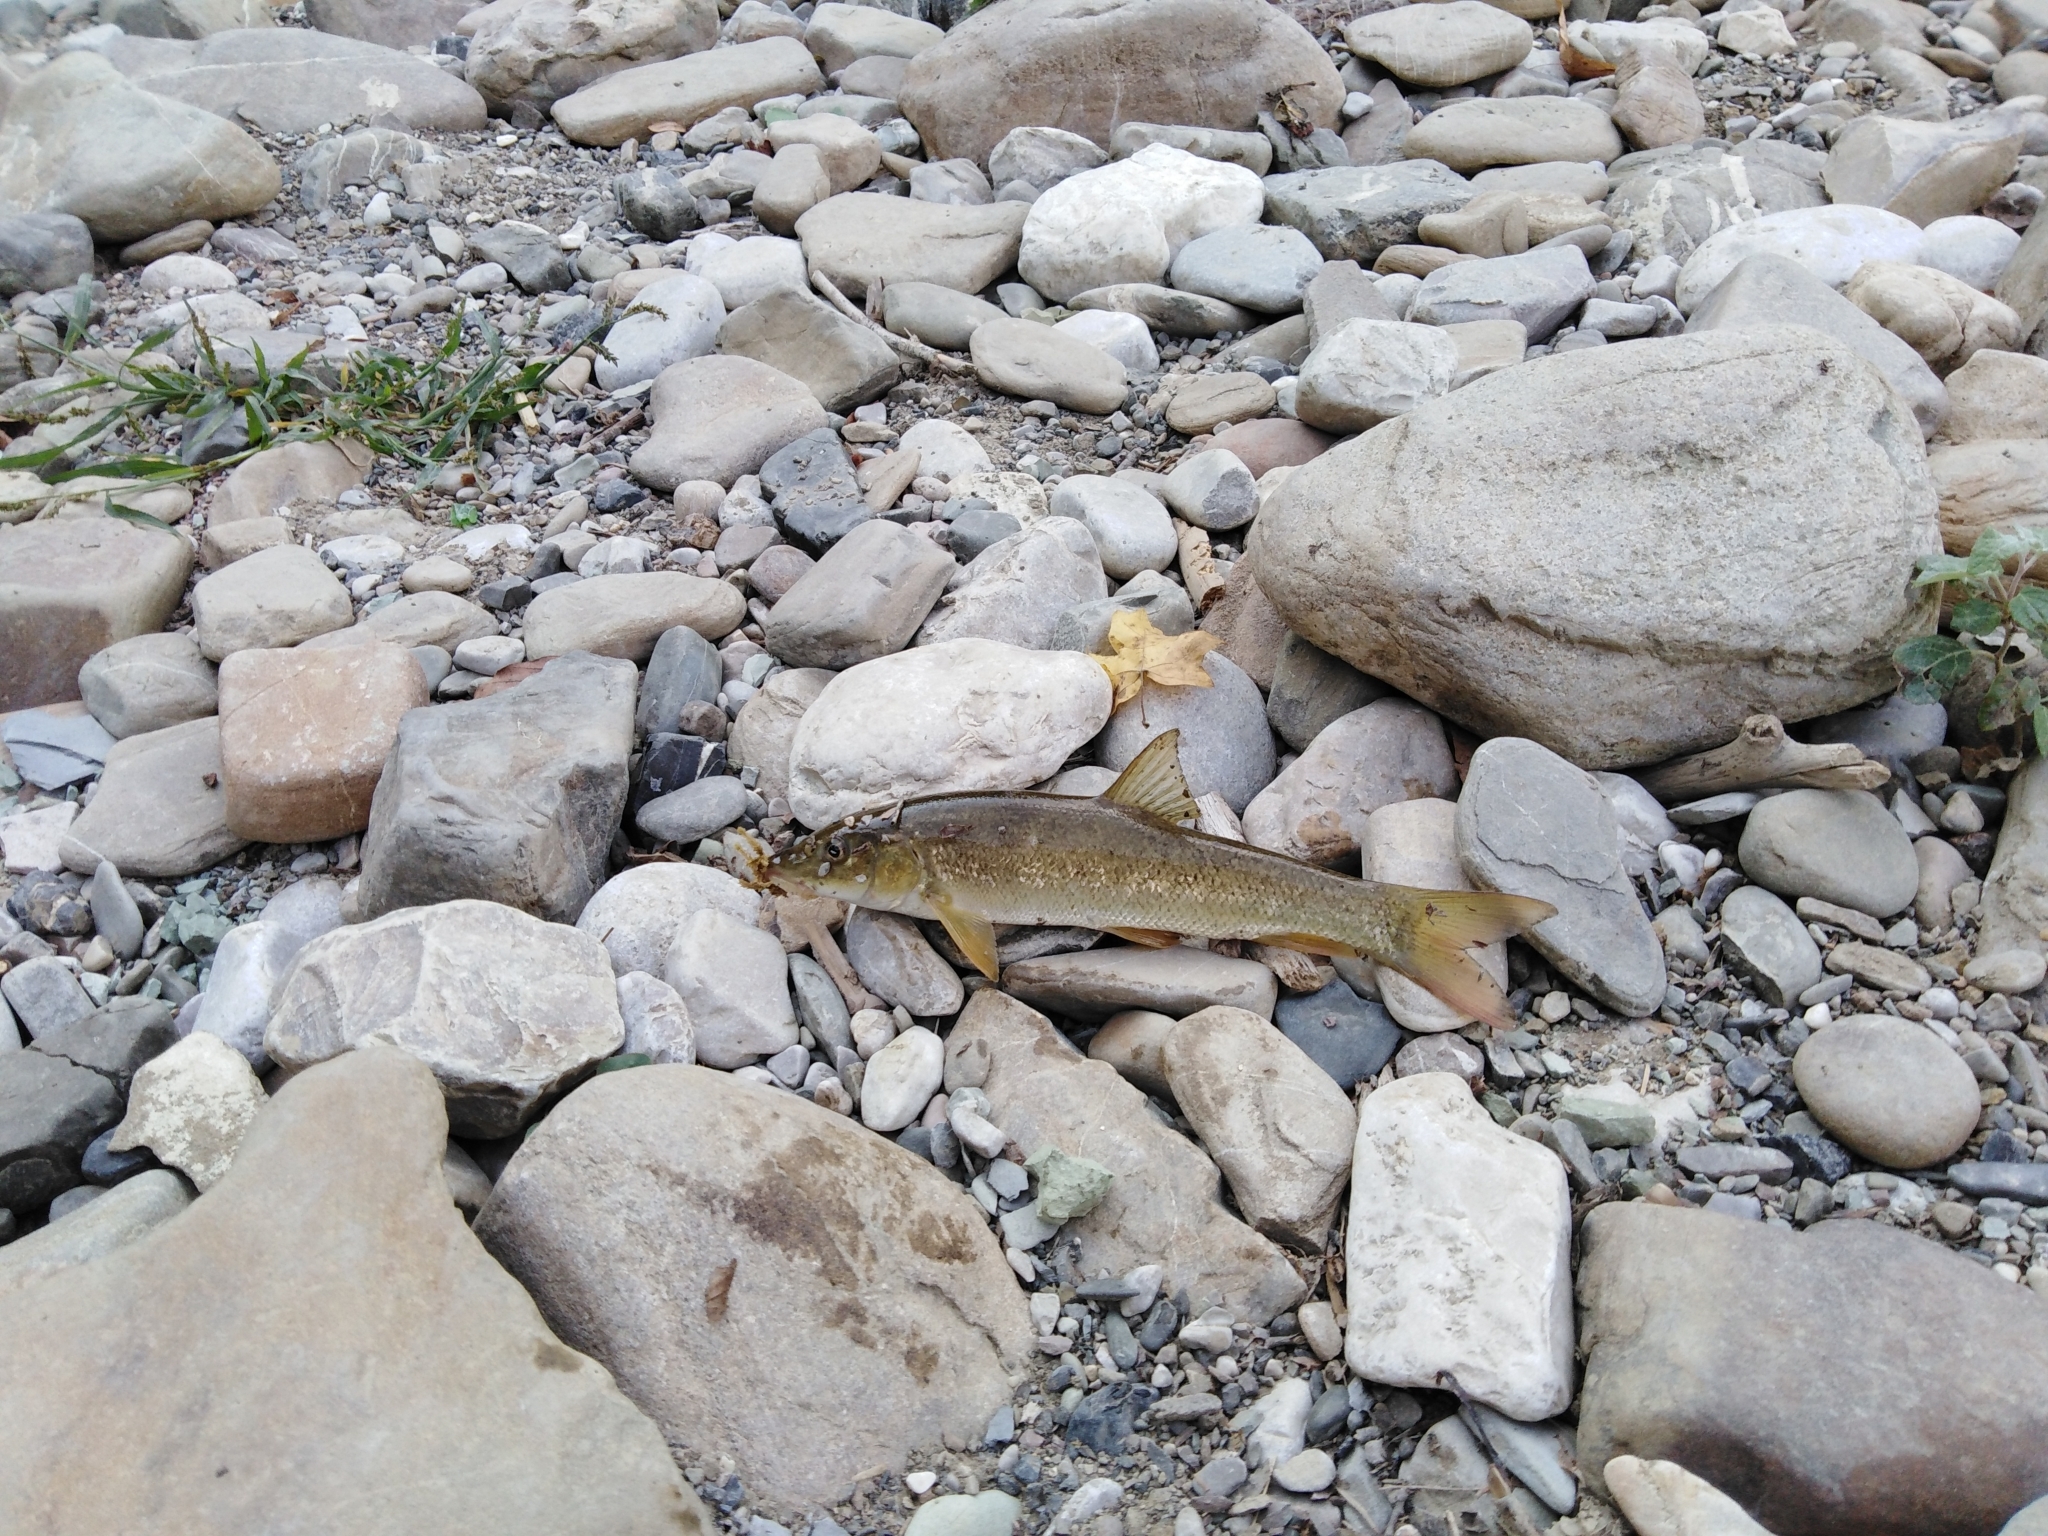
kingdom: Animalia
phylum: Chordata
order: Cypriniformes
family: Cyprinidae
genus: Barbus
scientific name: Barbus tauricus
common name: Crimean barbel
